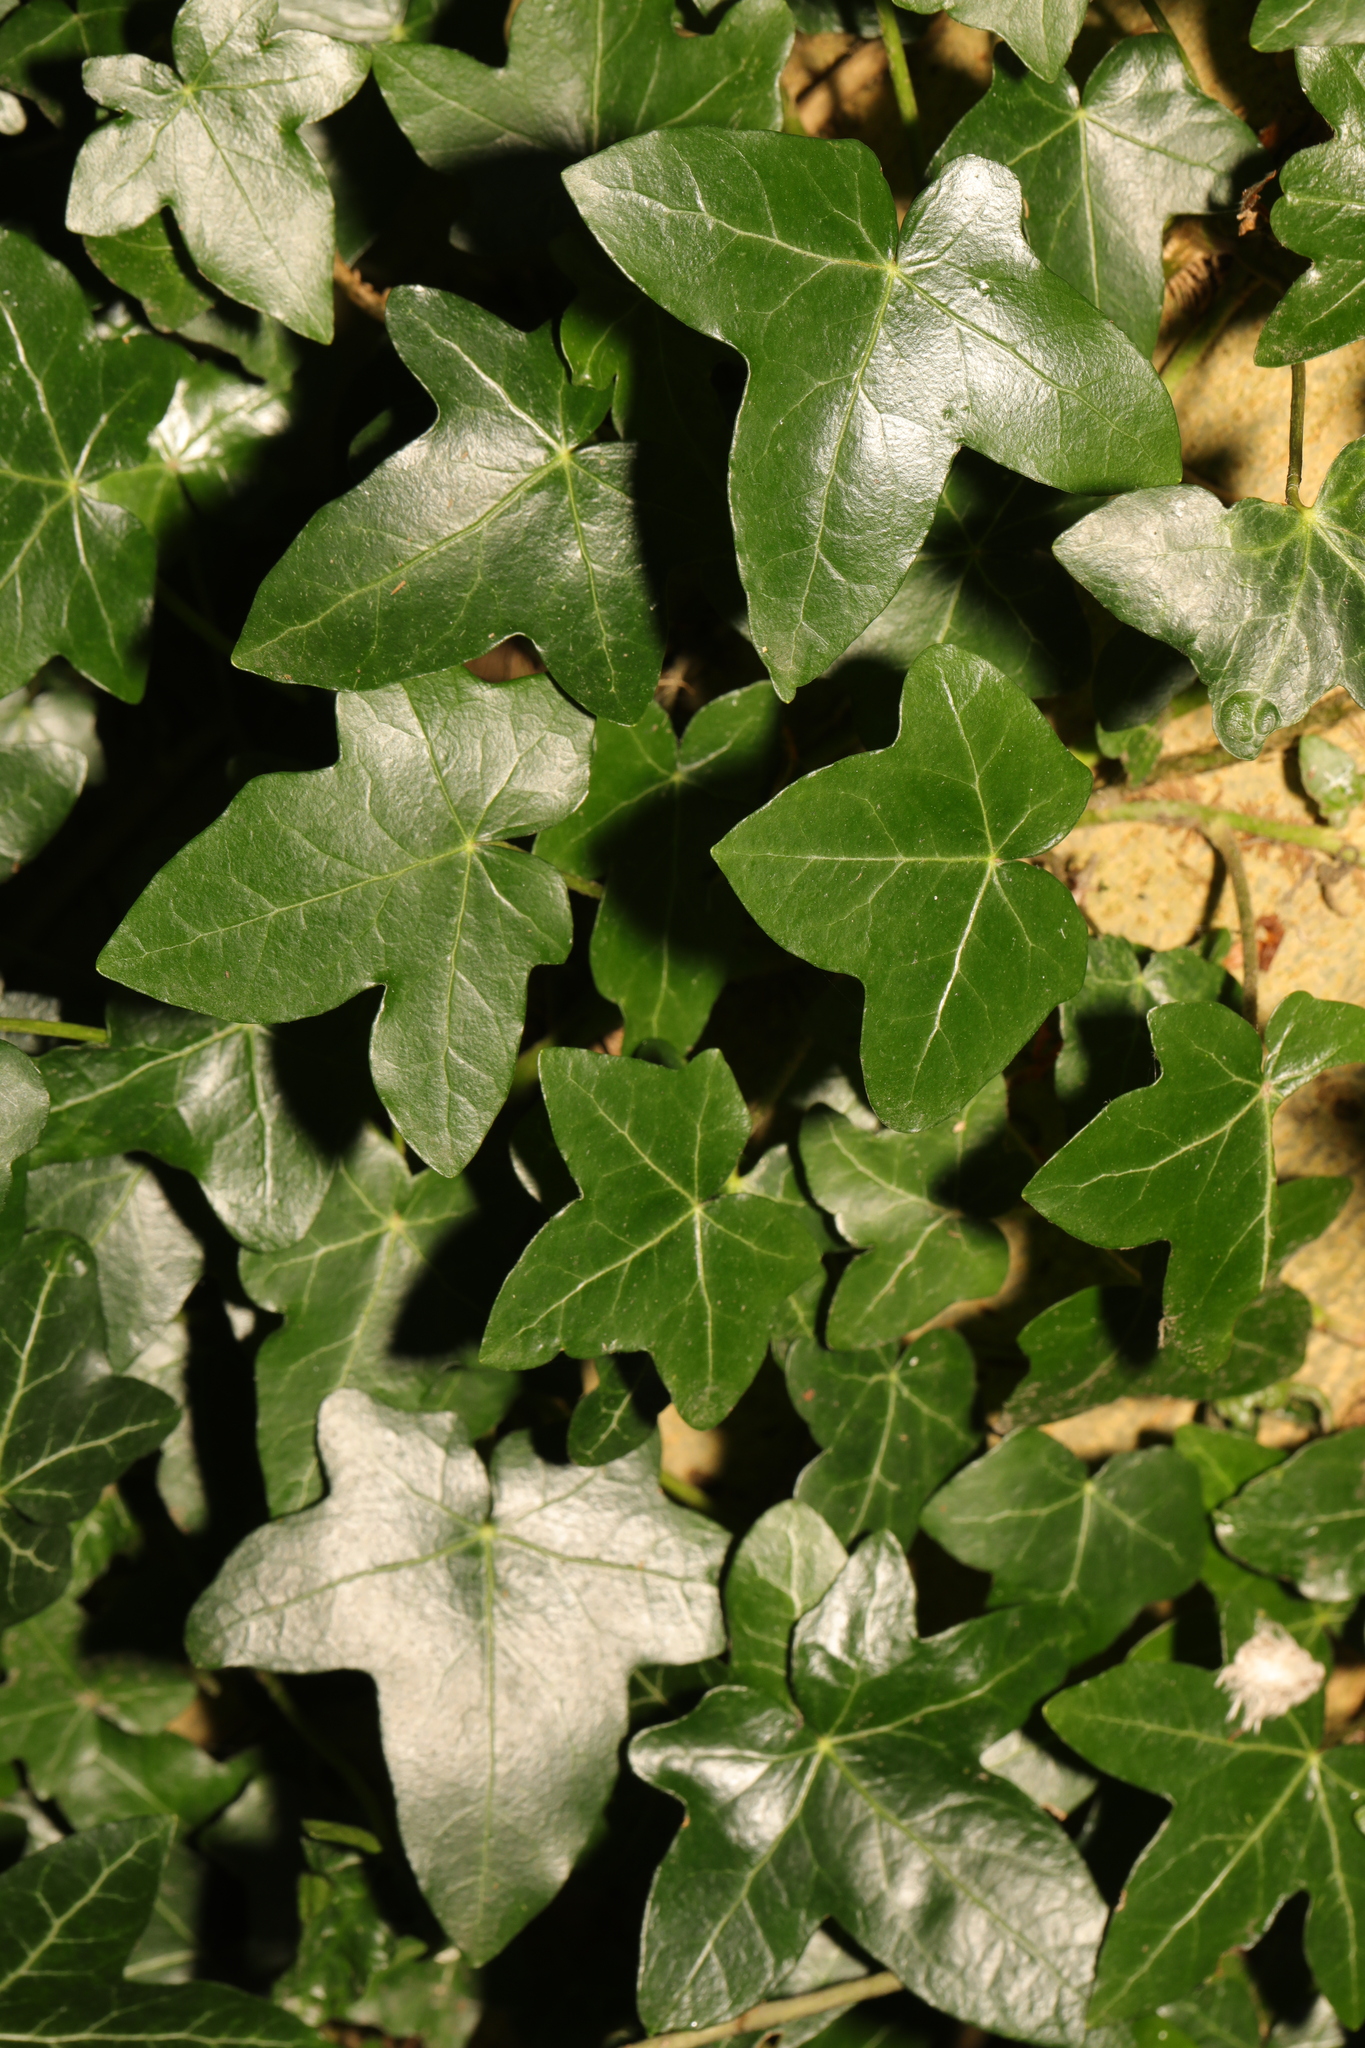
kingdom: Plantae
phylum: Tracheophyta
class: Magnoliopsida
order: Apiales
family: Araliaceae
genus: Hedera
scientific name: Hedera helix
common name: Ivy
